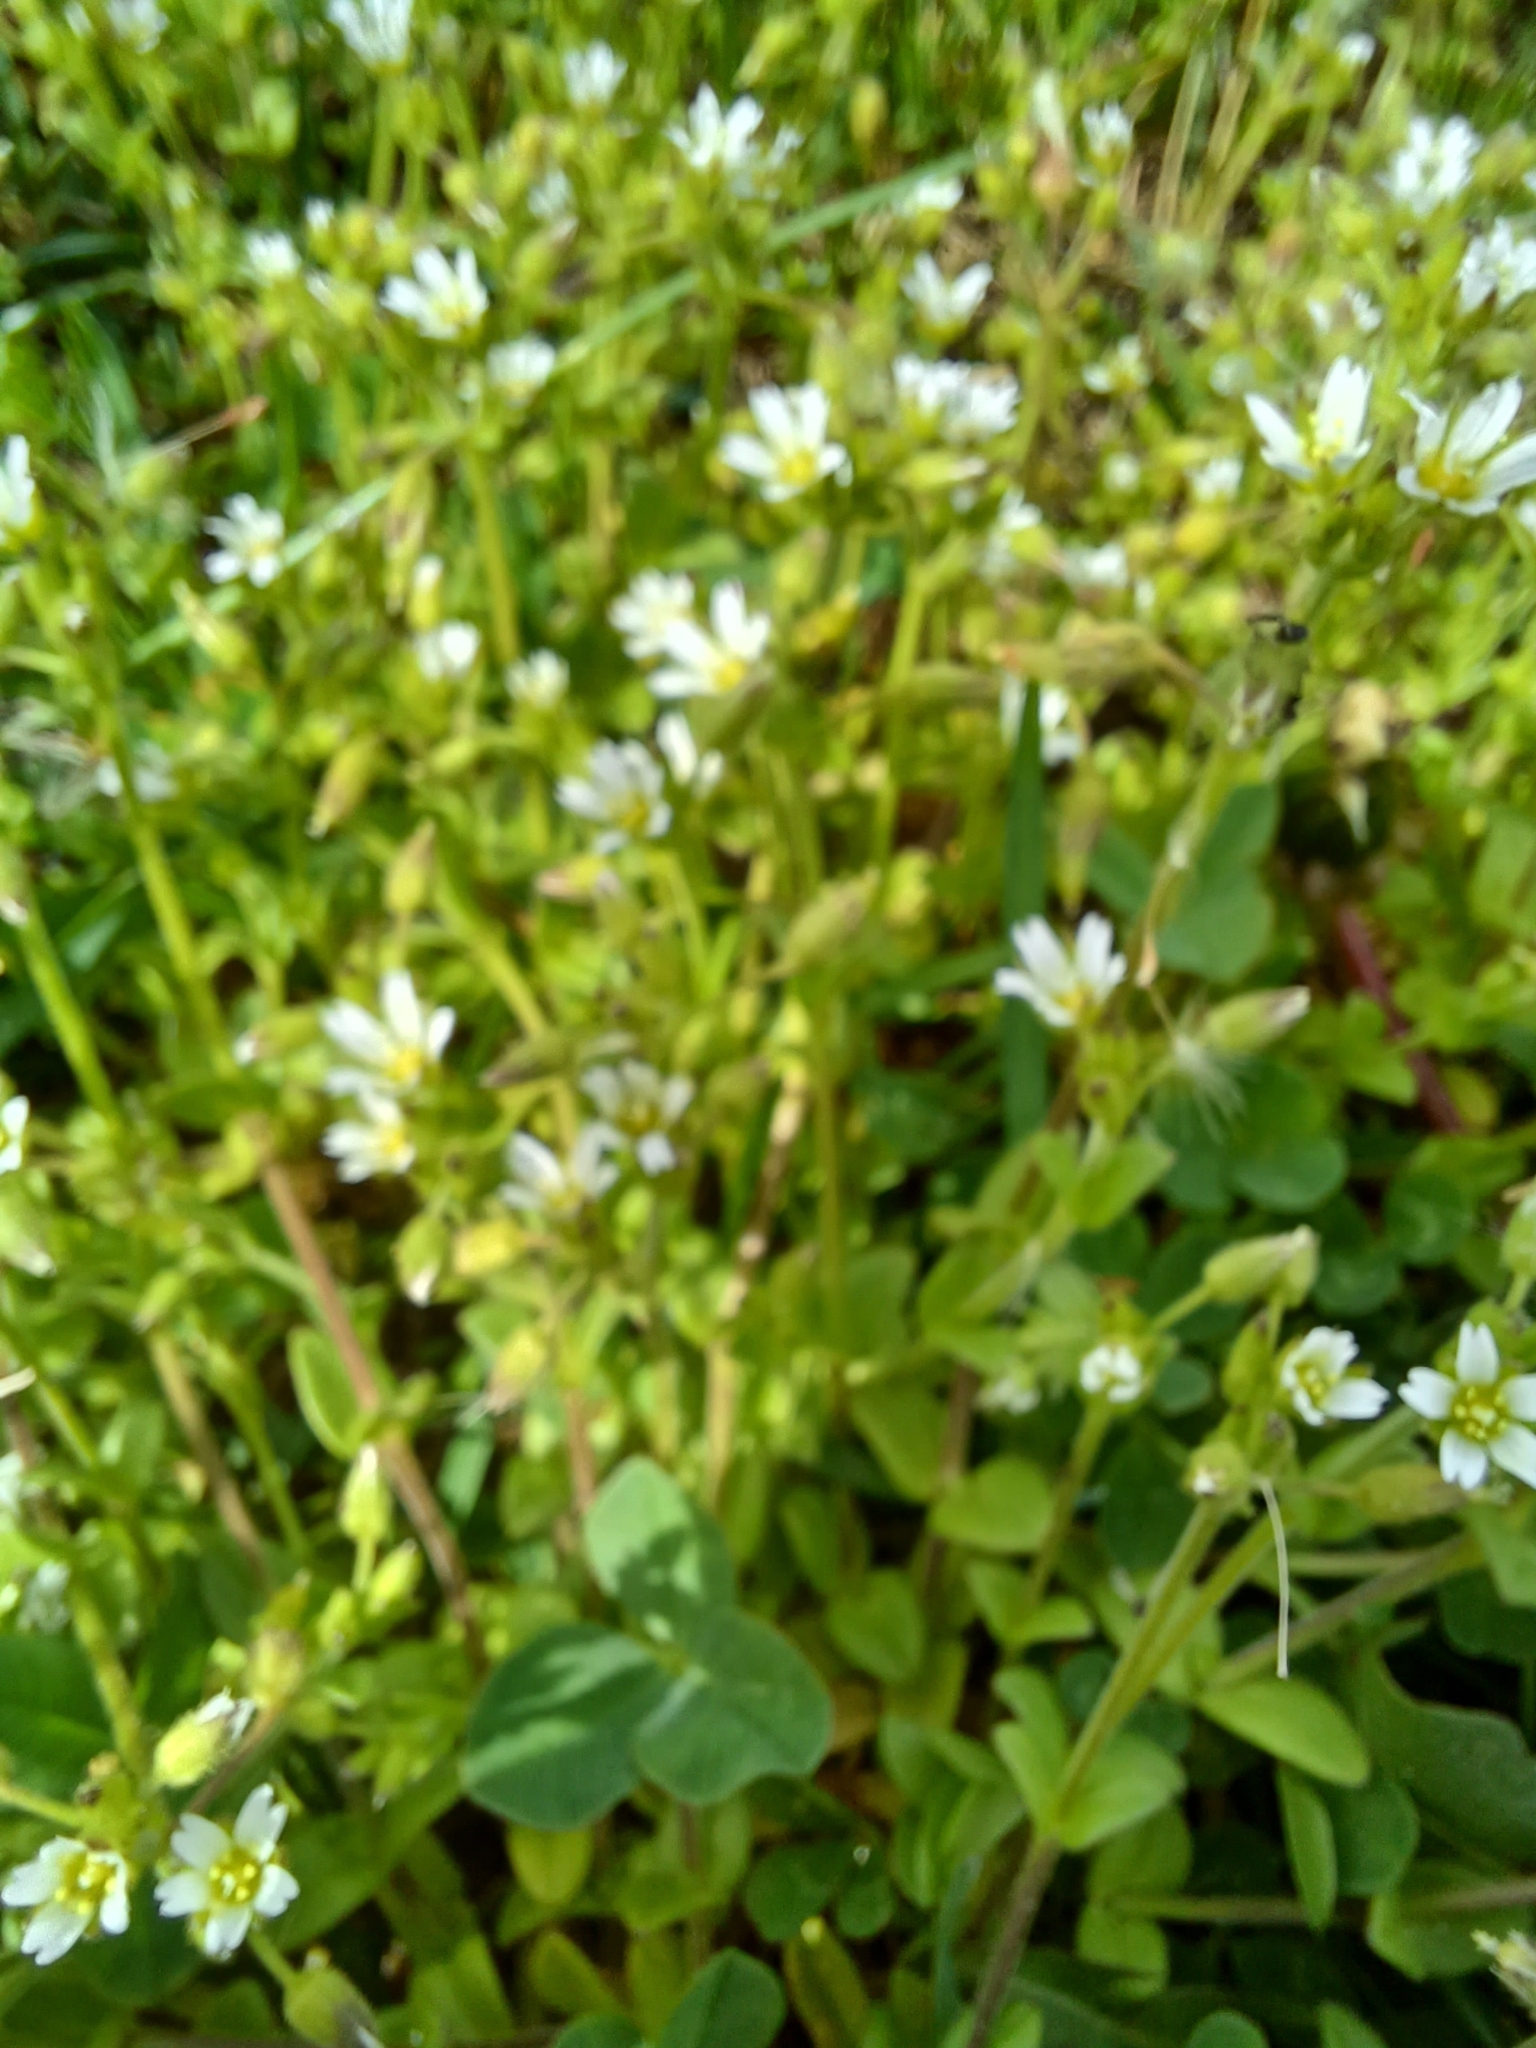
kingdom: Plantae
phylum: Tracheophyta
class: Magnoliopsida
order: Caryophyllales
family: Caryophyllaceae
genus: Cerastium
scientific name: Cerastium fontanum
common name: Common mouse-ear
